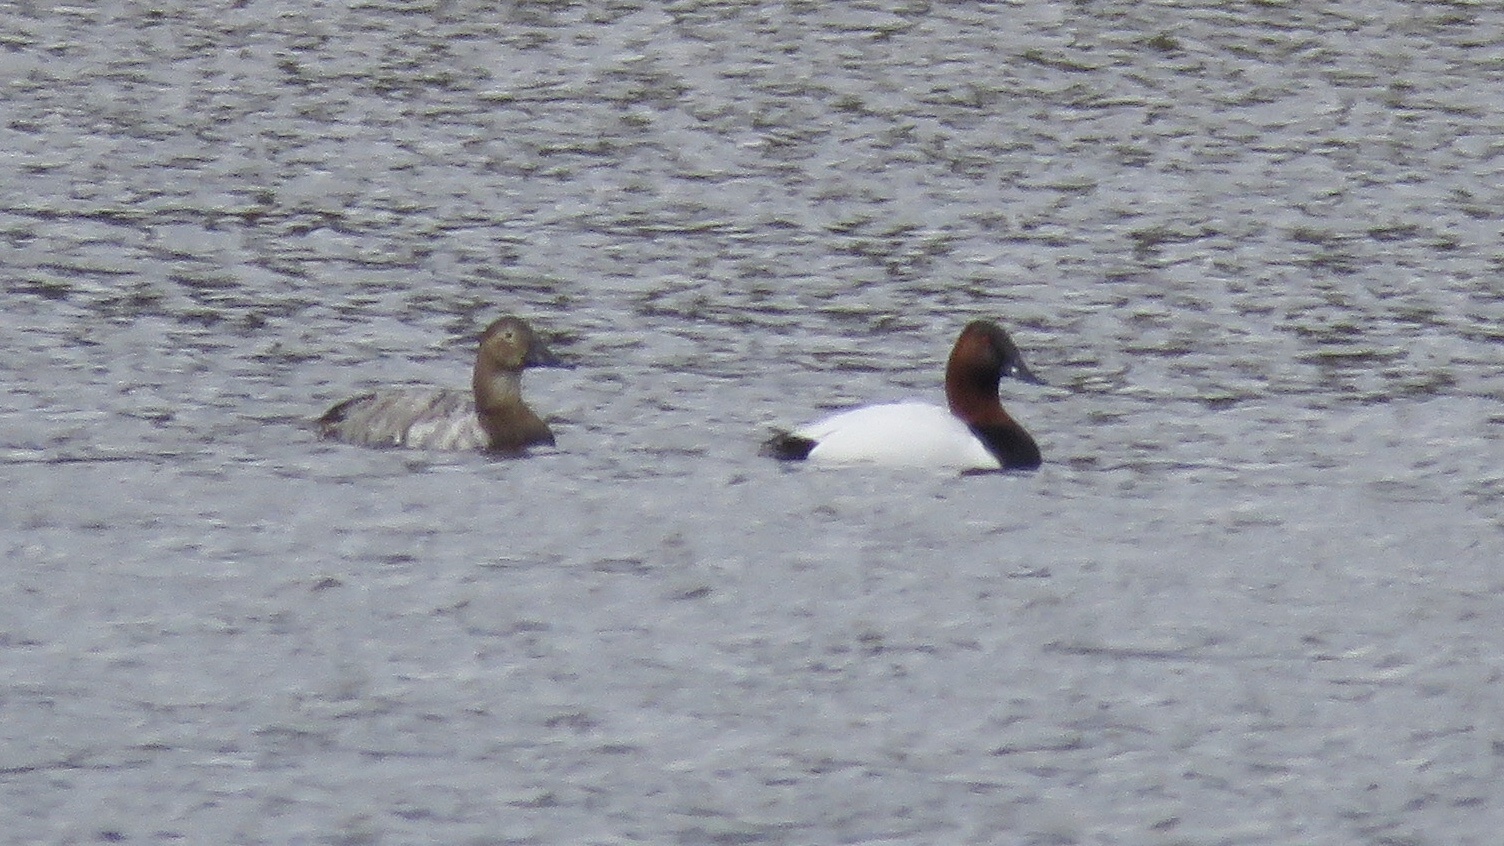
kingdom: Animalia
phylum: Chordata
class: Aves
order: Anseriformes
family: Anatidae
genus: Aythya
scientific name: Aythya valisineria
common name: Canvasback
